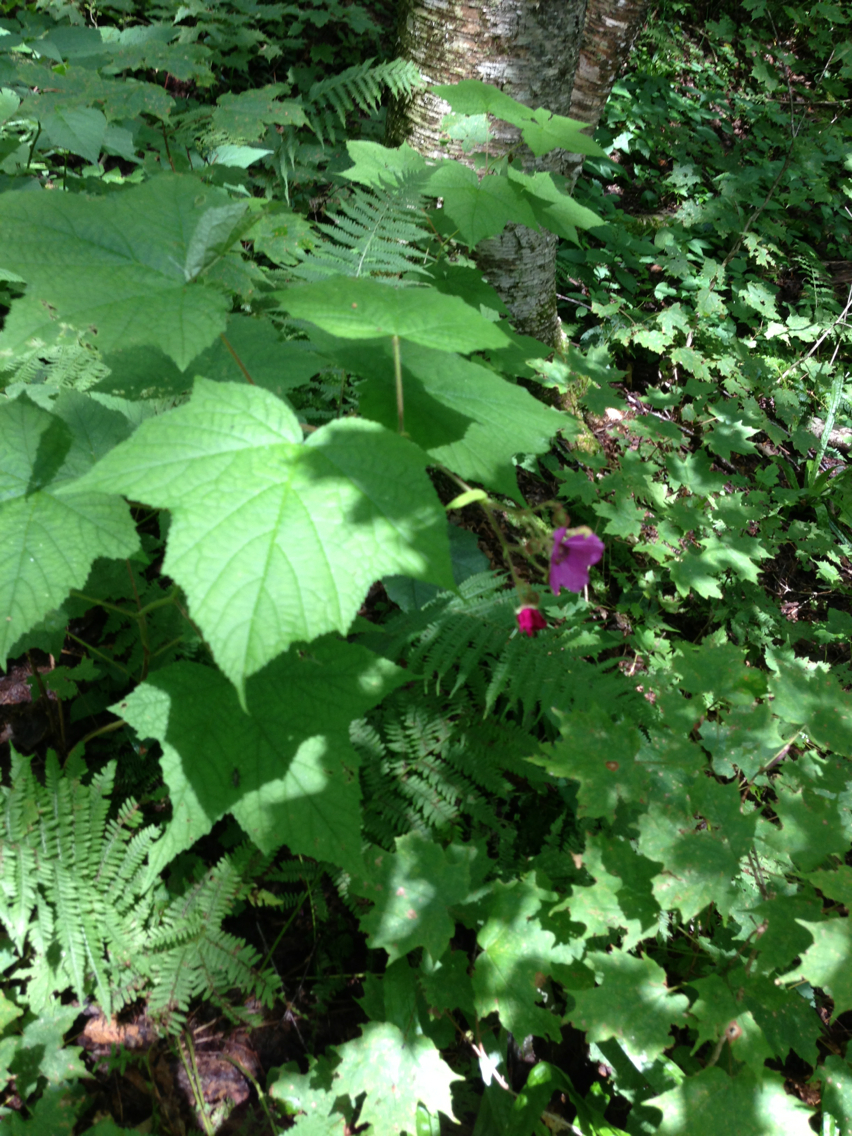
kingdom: Plantae
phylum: Tracheophyta
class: Magnoliopsida
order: Rosales
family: Rosaceae
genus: Rubus
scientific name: Rubus odoratus
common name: Purple-flowered raspberry
